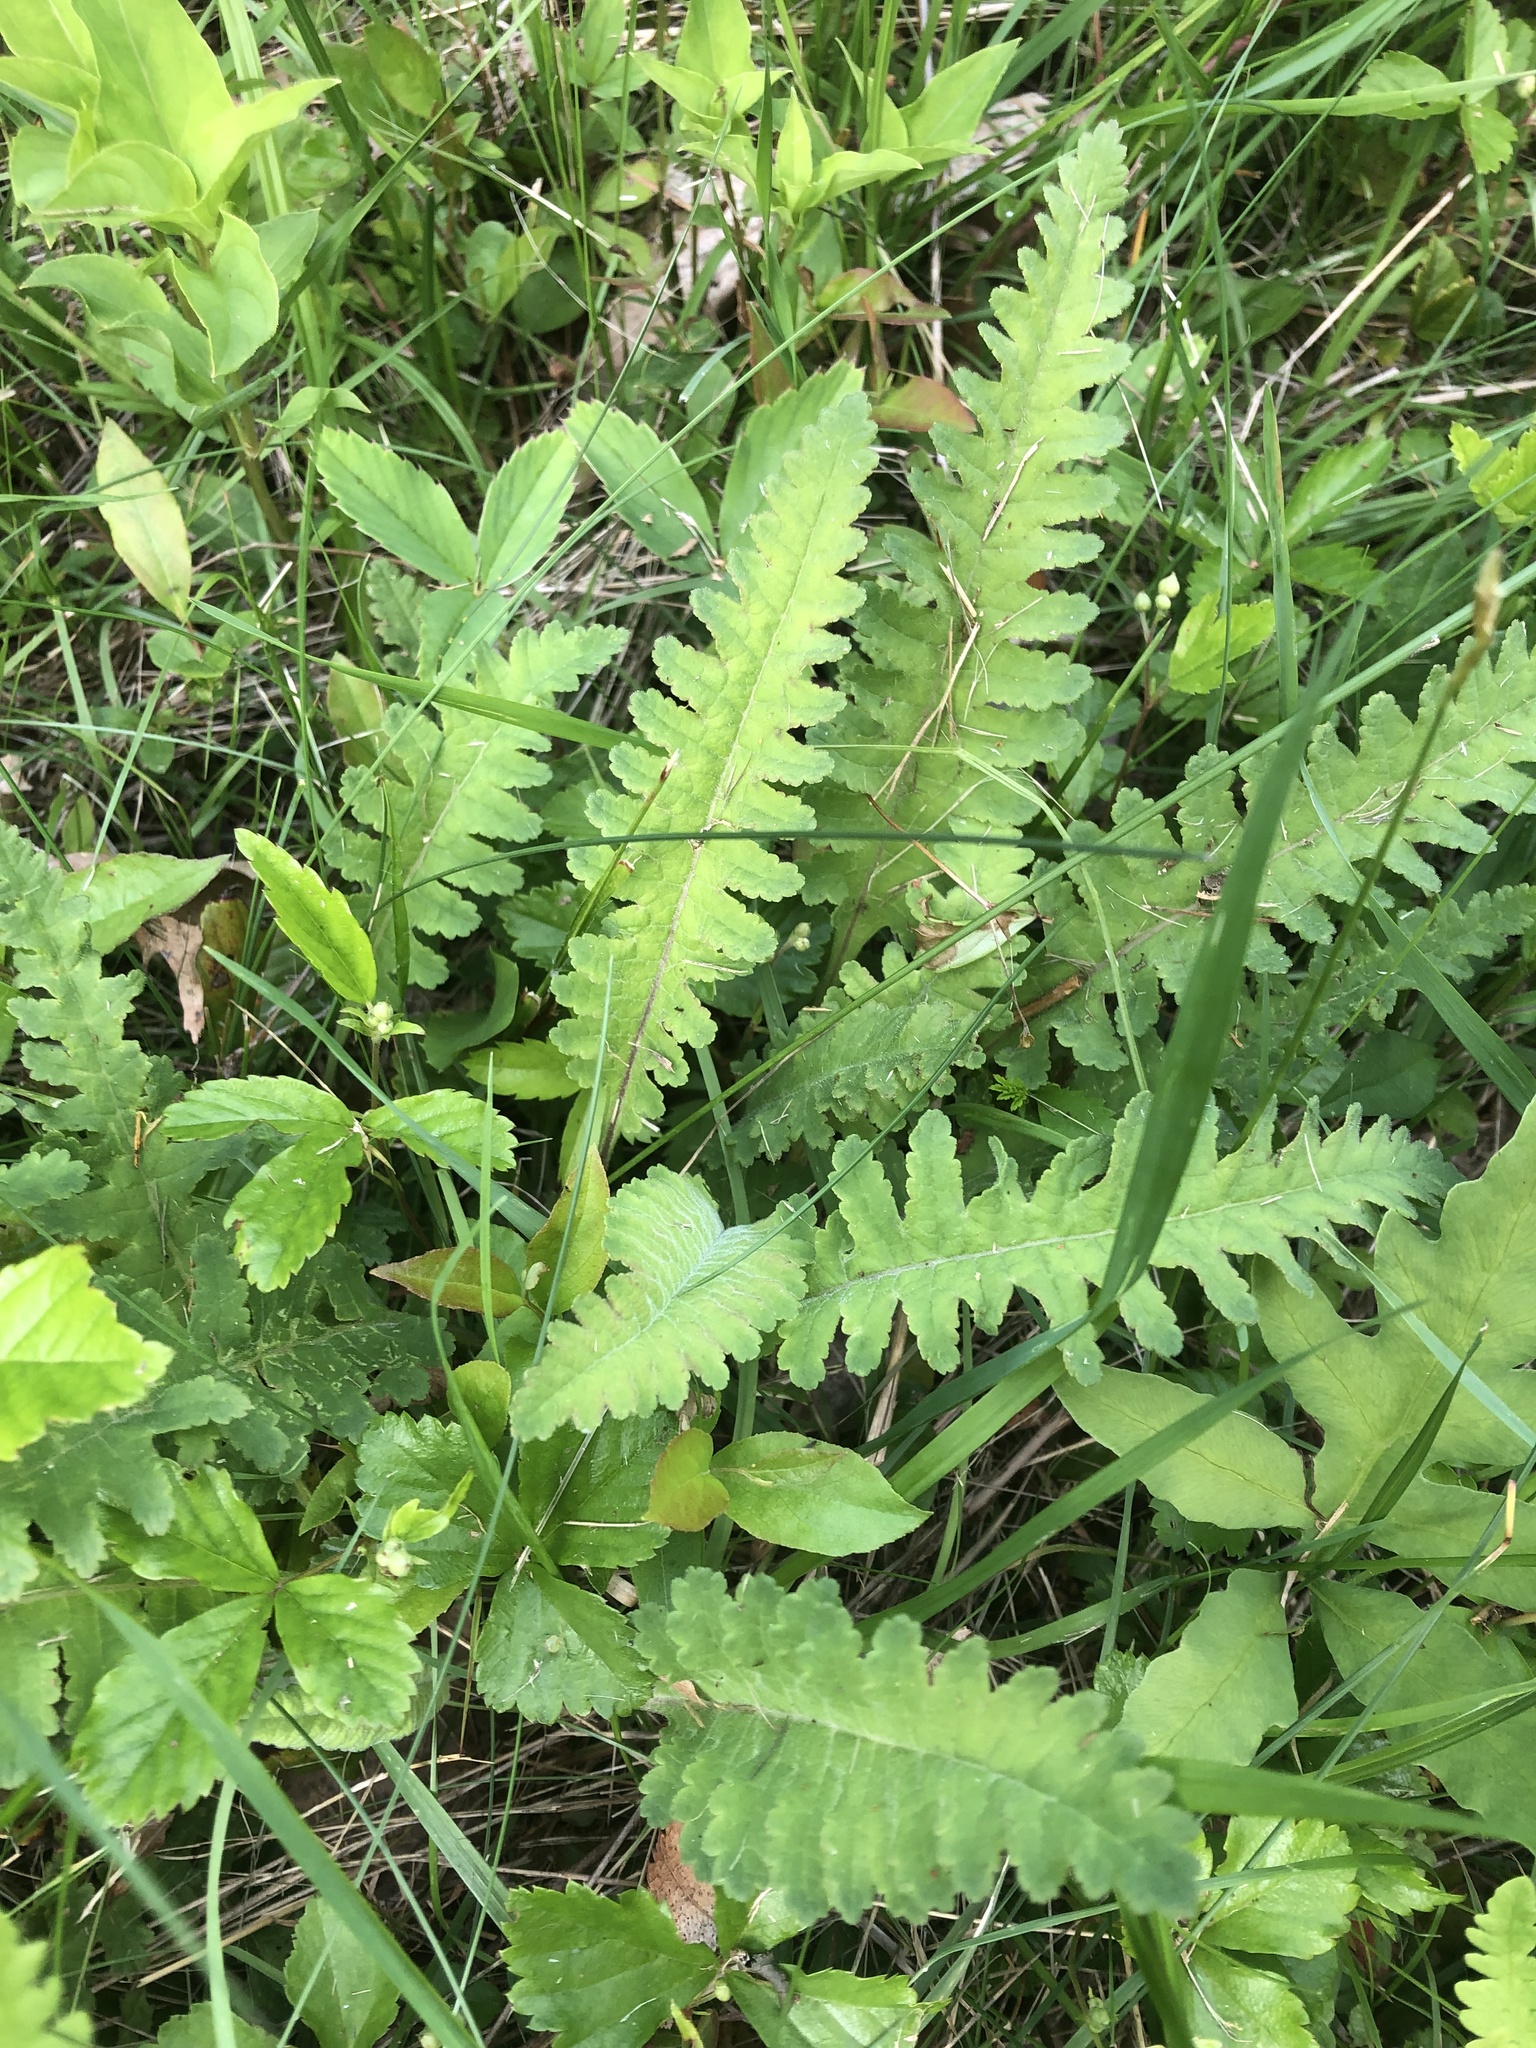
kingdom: Plantae
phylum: Tracheophyta
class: Magnoliopsida
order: Lamiales
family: Orobanchaceae
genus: Pedicularis
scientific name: Pedicularis canadensis
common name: Early lousewort
